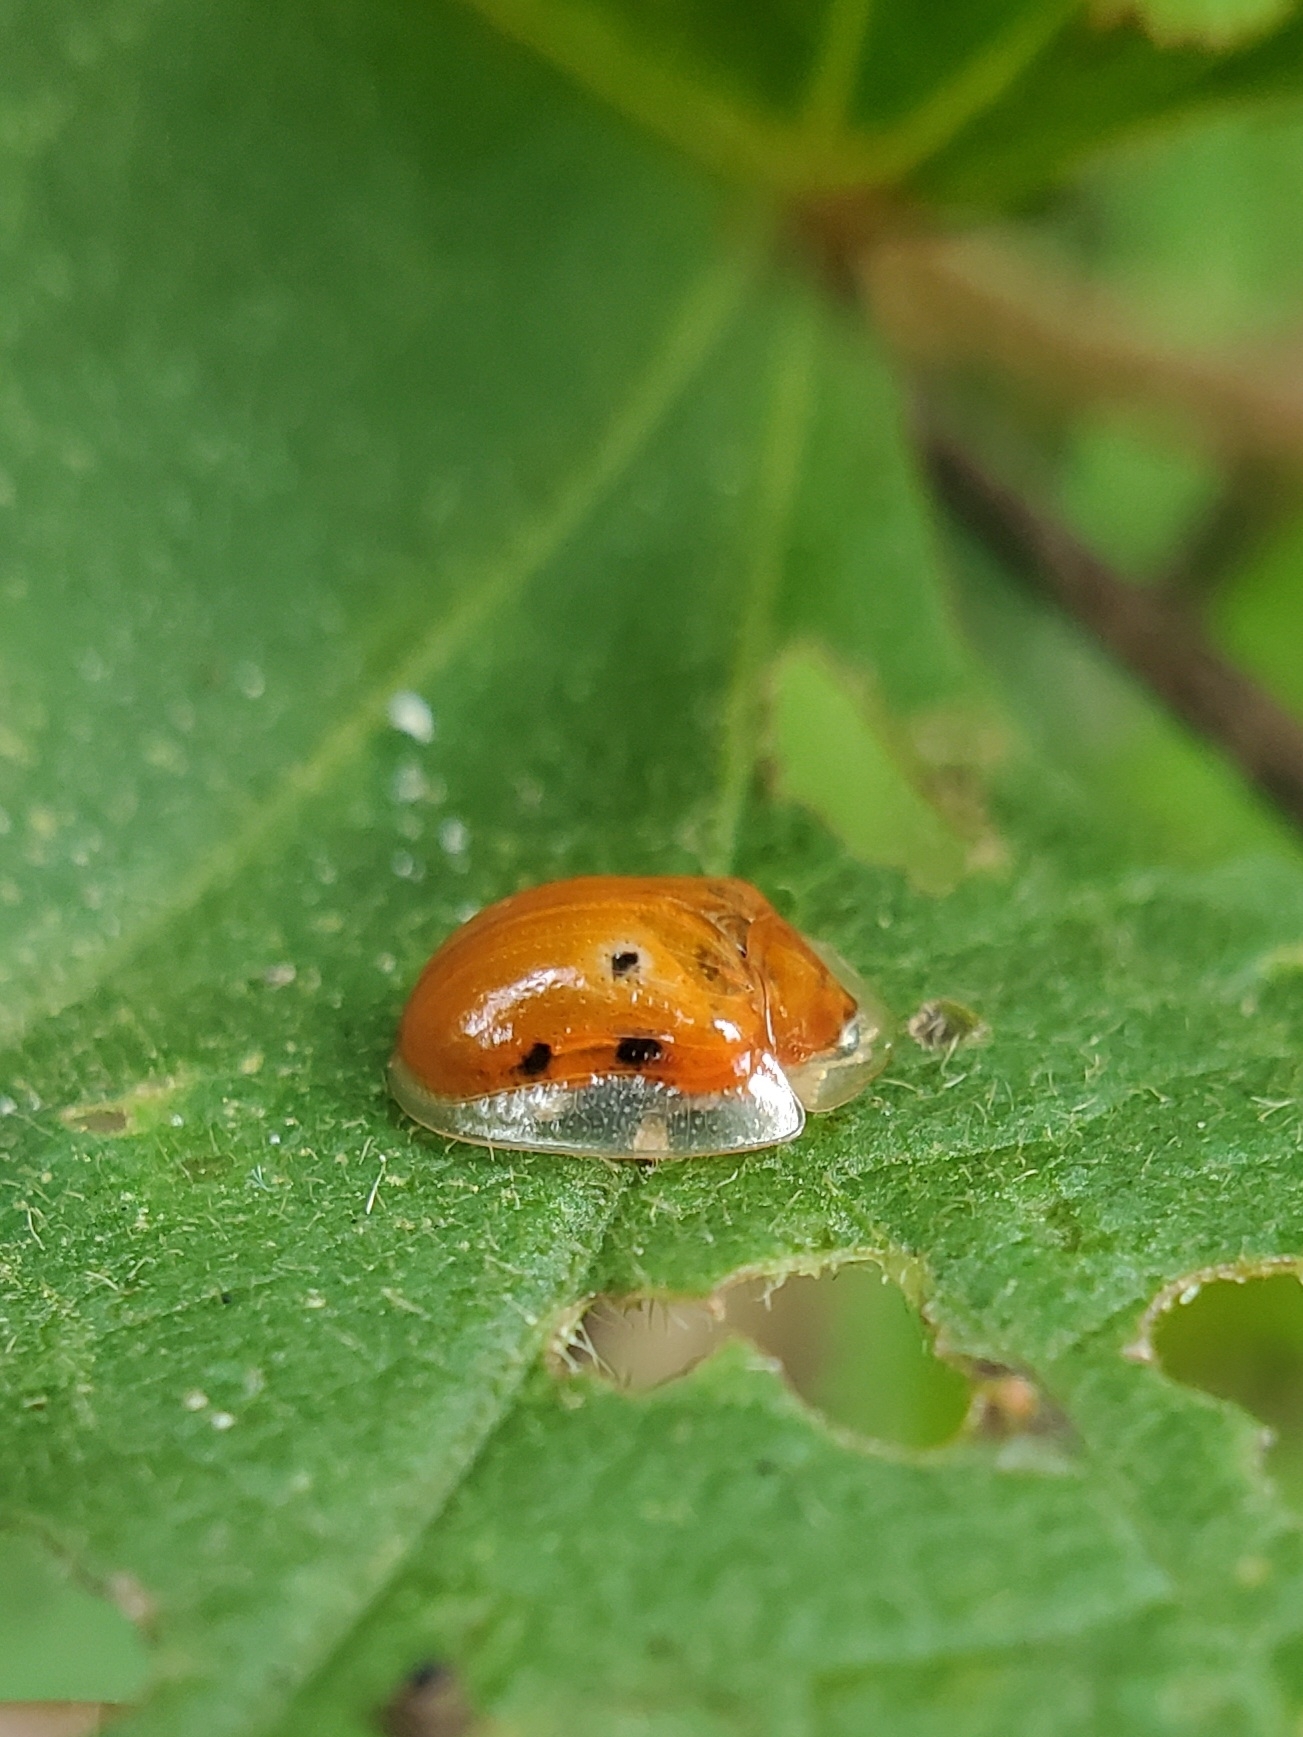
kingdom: Animalia
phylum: Arthropoda
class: Insecta
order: Coleoptera
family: Chrysomelidae
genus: Charidotella
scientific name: Charidotella sexpunctata
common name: Golden tortoise beetle
